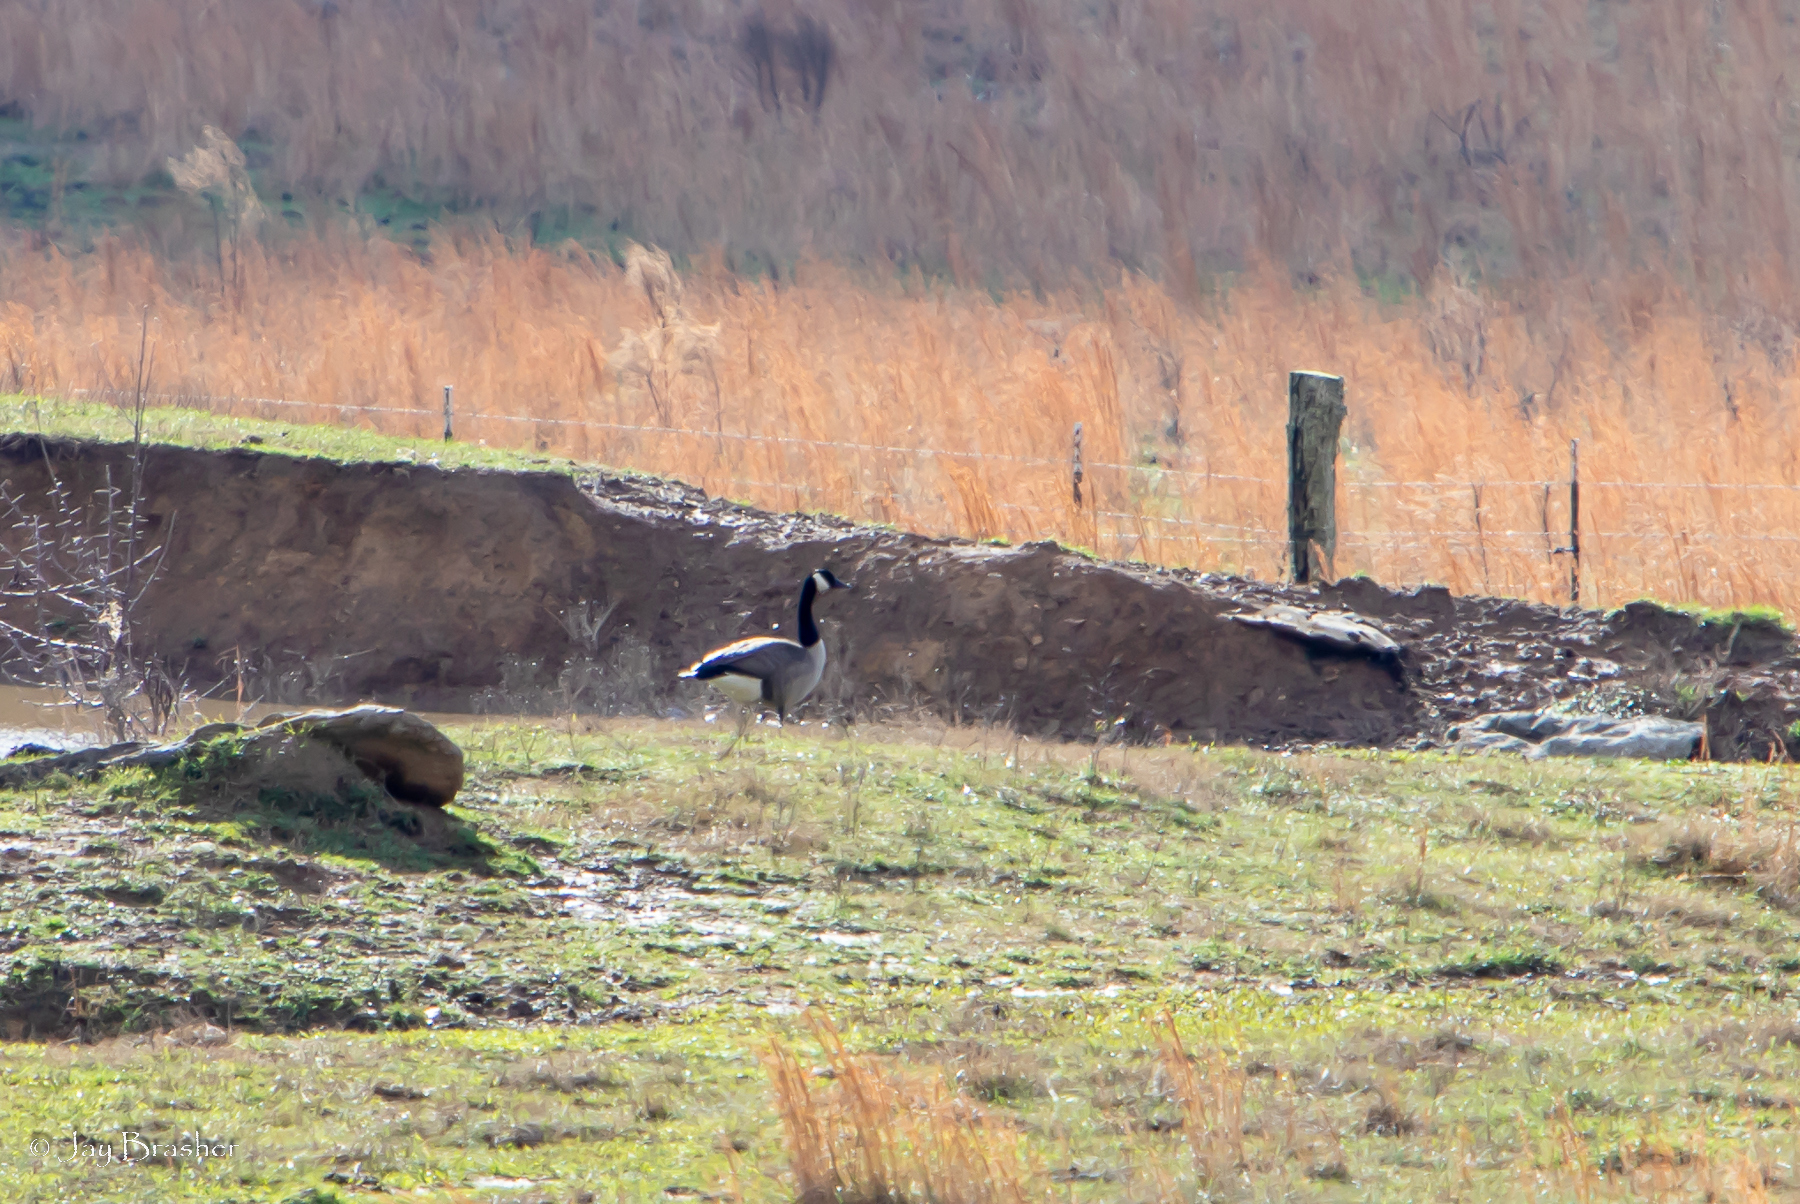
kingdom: Animalia
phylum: Chordata
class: Aves
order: Anseriformes
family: Anatidae
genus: Branta
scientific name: Branta canadensis
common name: Canada goose
